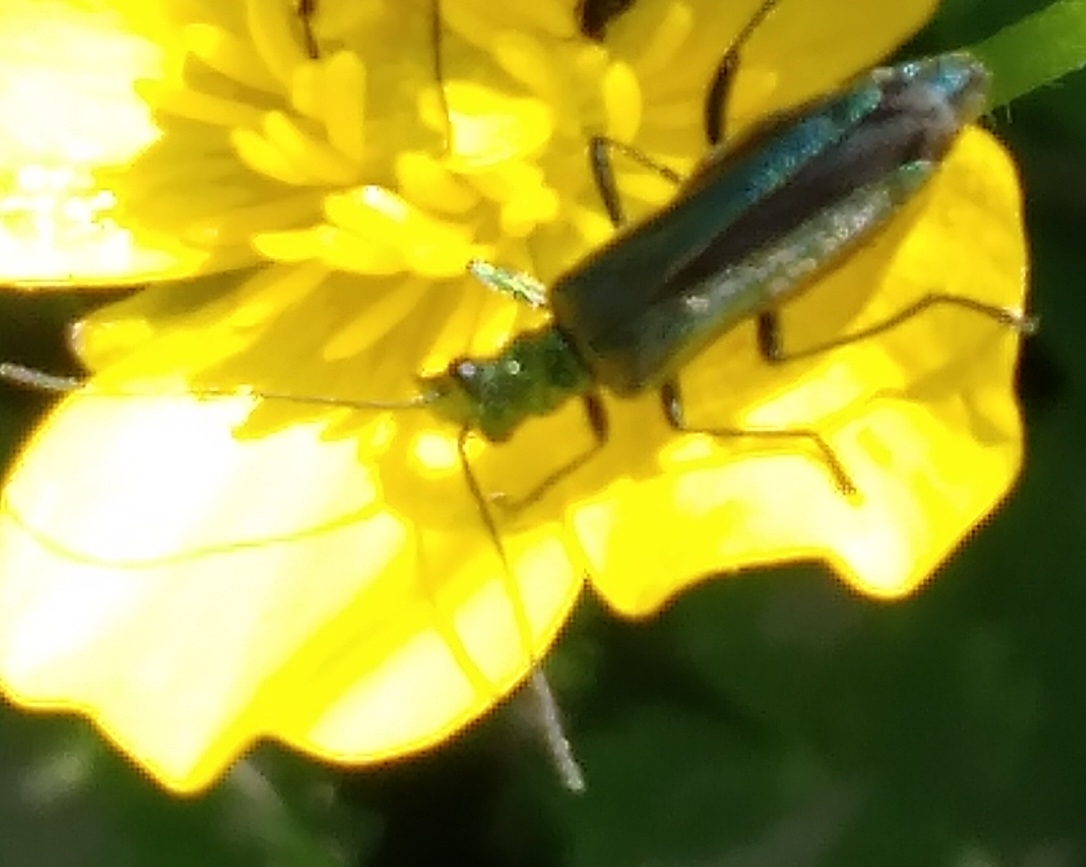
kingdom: Animalia
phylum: Arthropoda
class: Insecta
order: Coleoptera
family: Oedemeridae
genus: Oedemera
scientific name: Oedemera nobilis
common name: Swollen-thighed beetle
